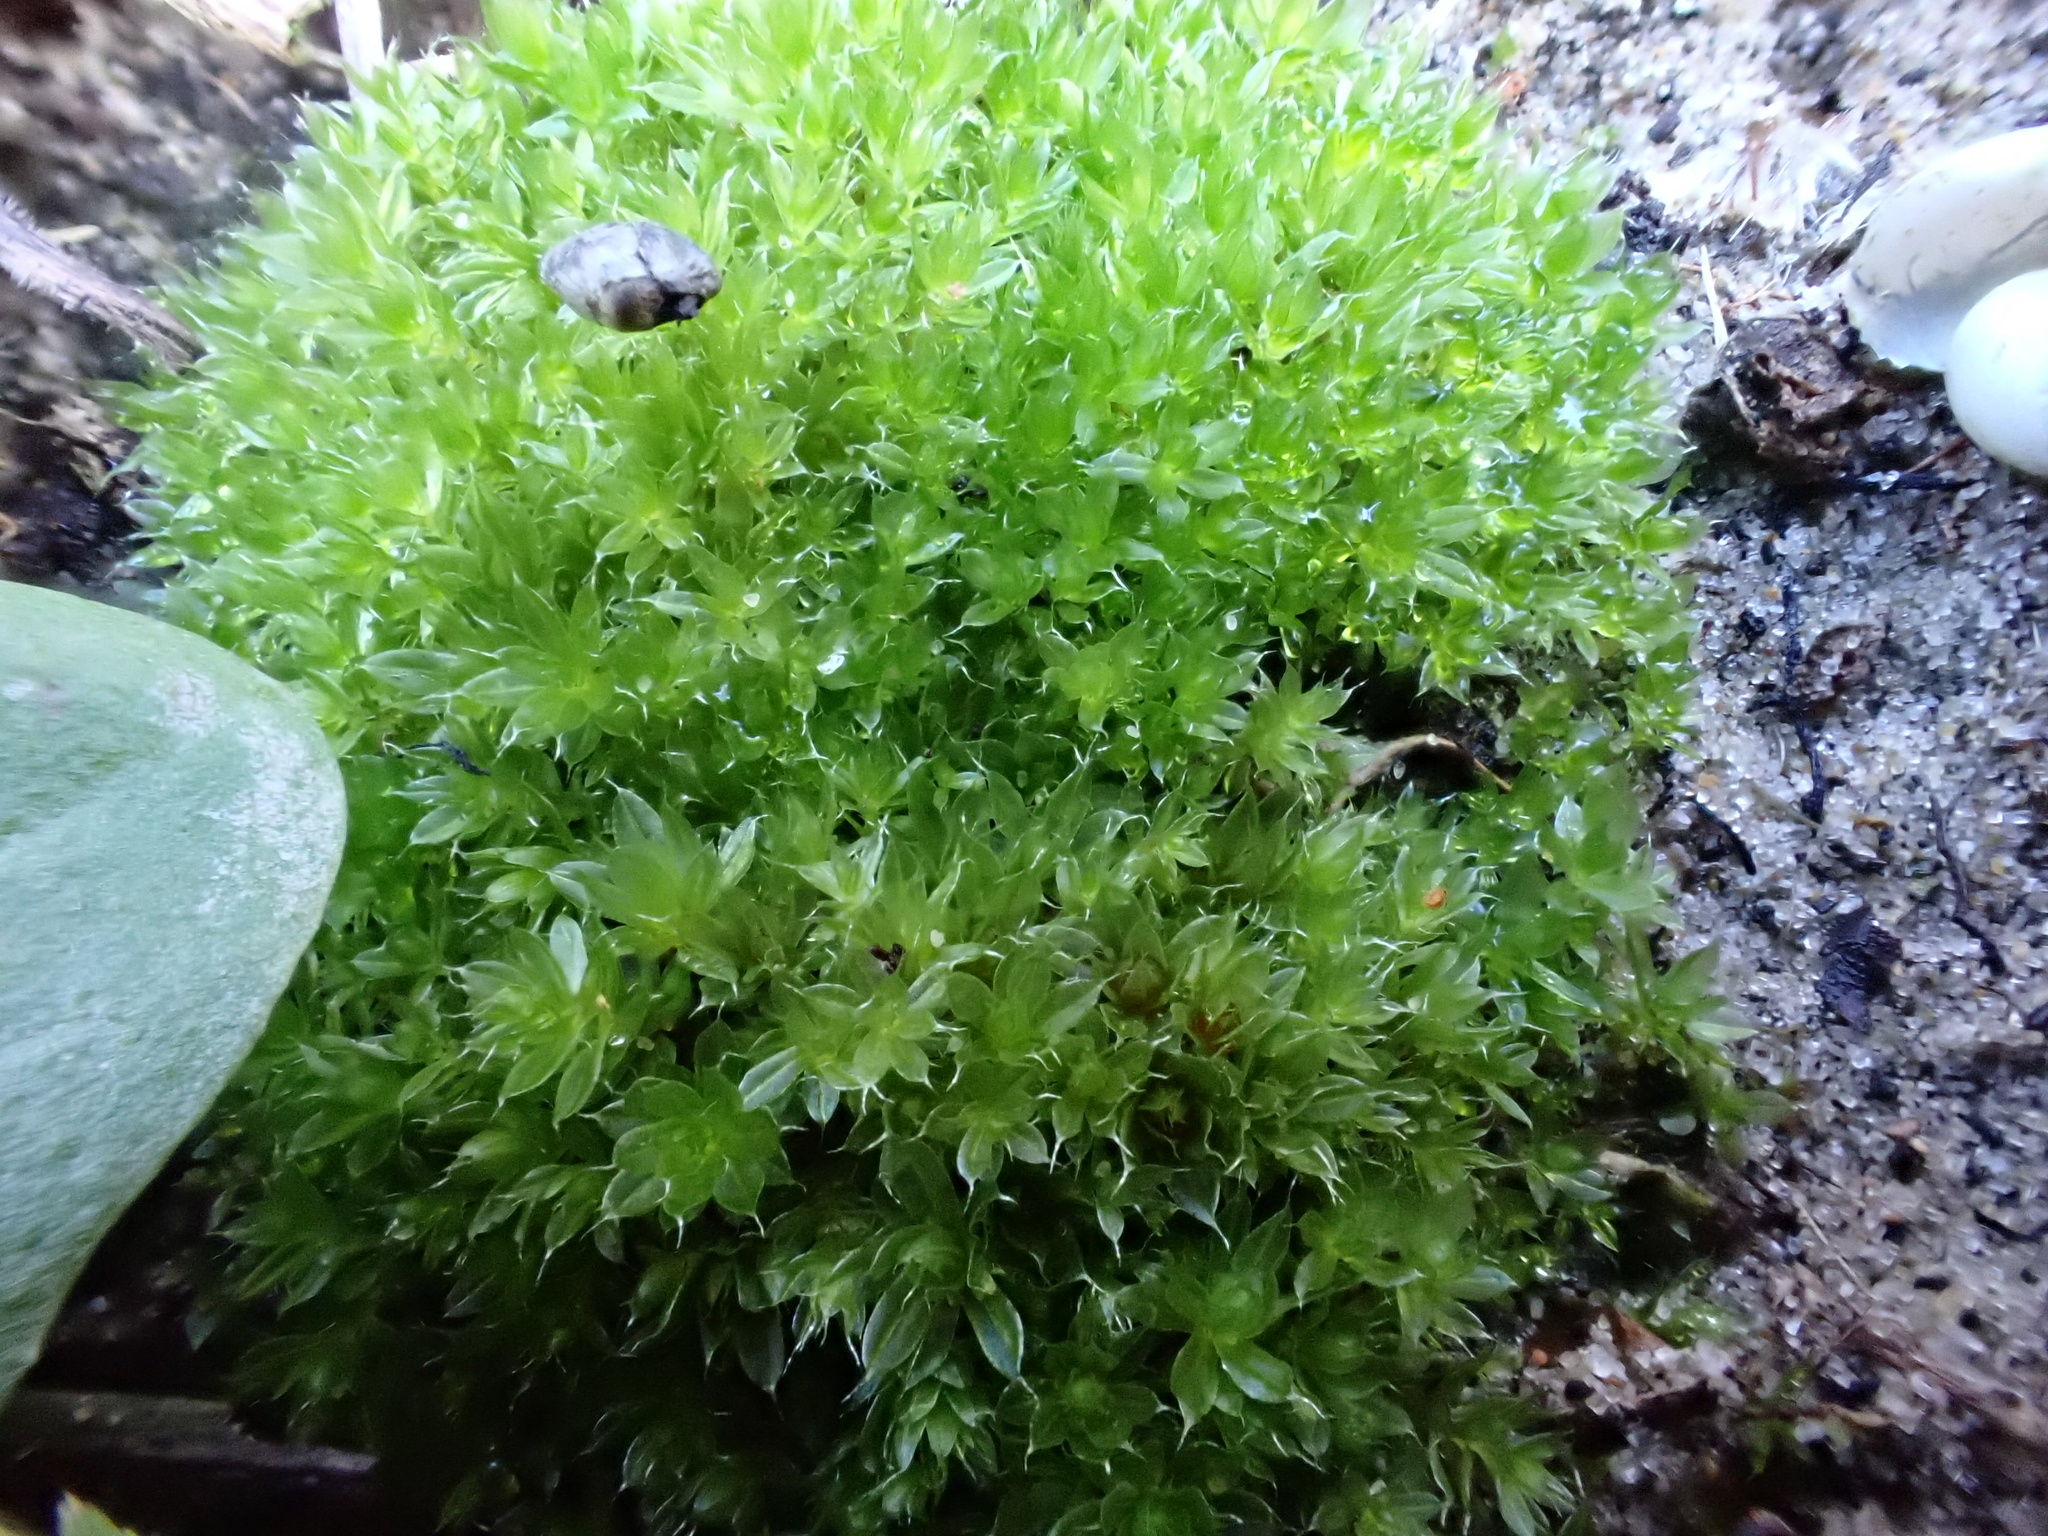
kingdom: Plantae
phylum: Bryophyta
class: Bryopsida
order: Bryales
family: Bryaceae
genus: Rosulabryum
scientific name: Rosulabryum capillare
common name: Capillary thread-moss
